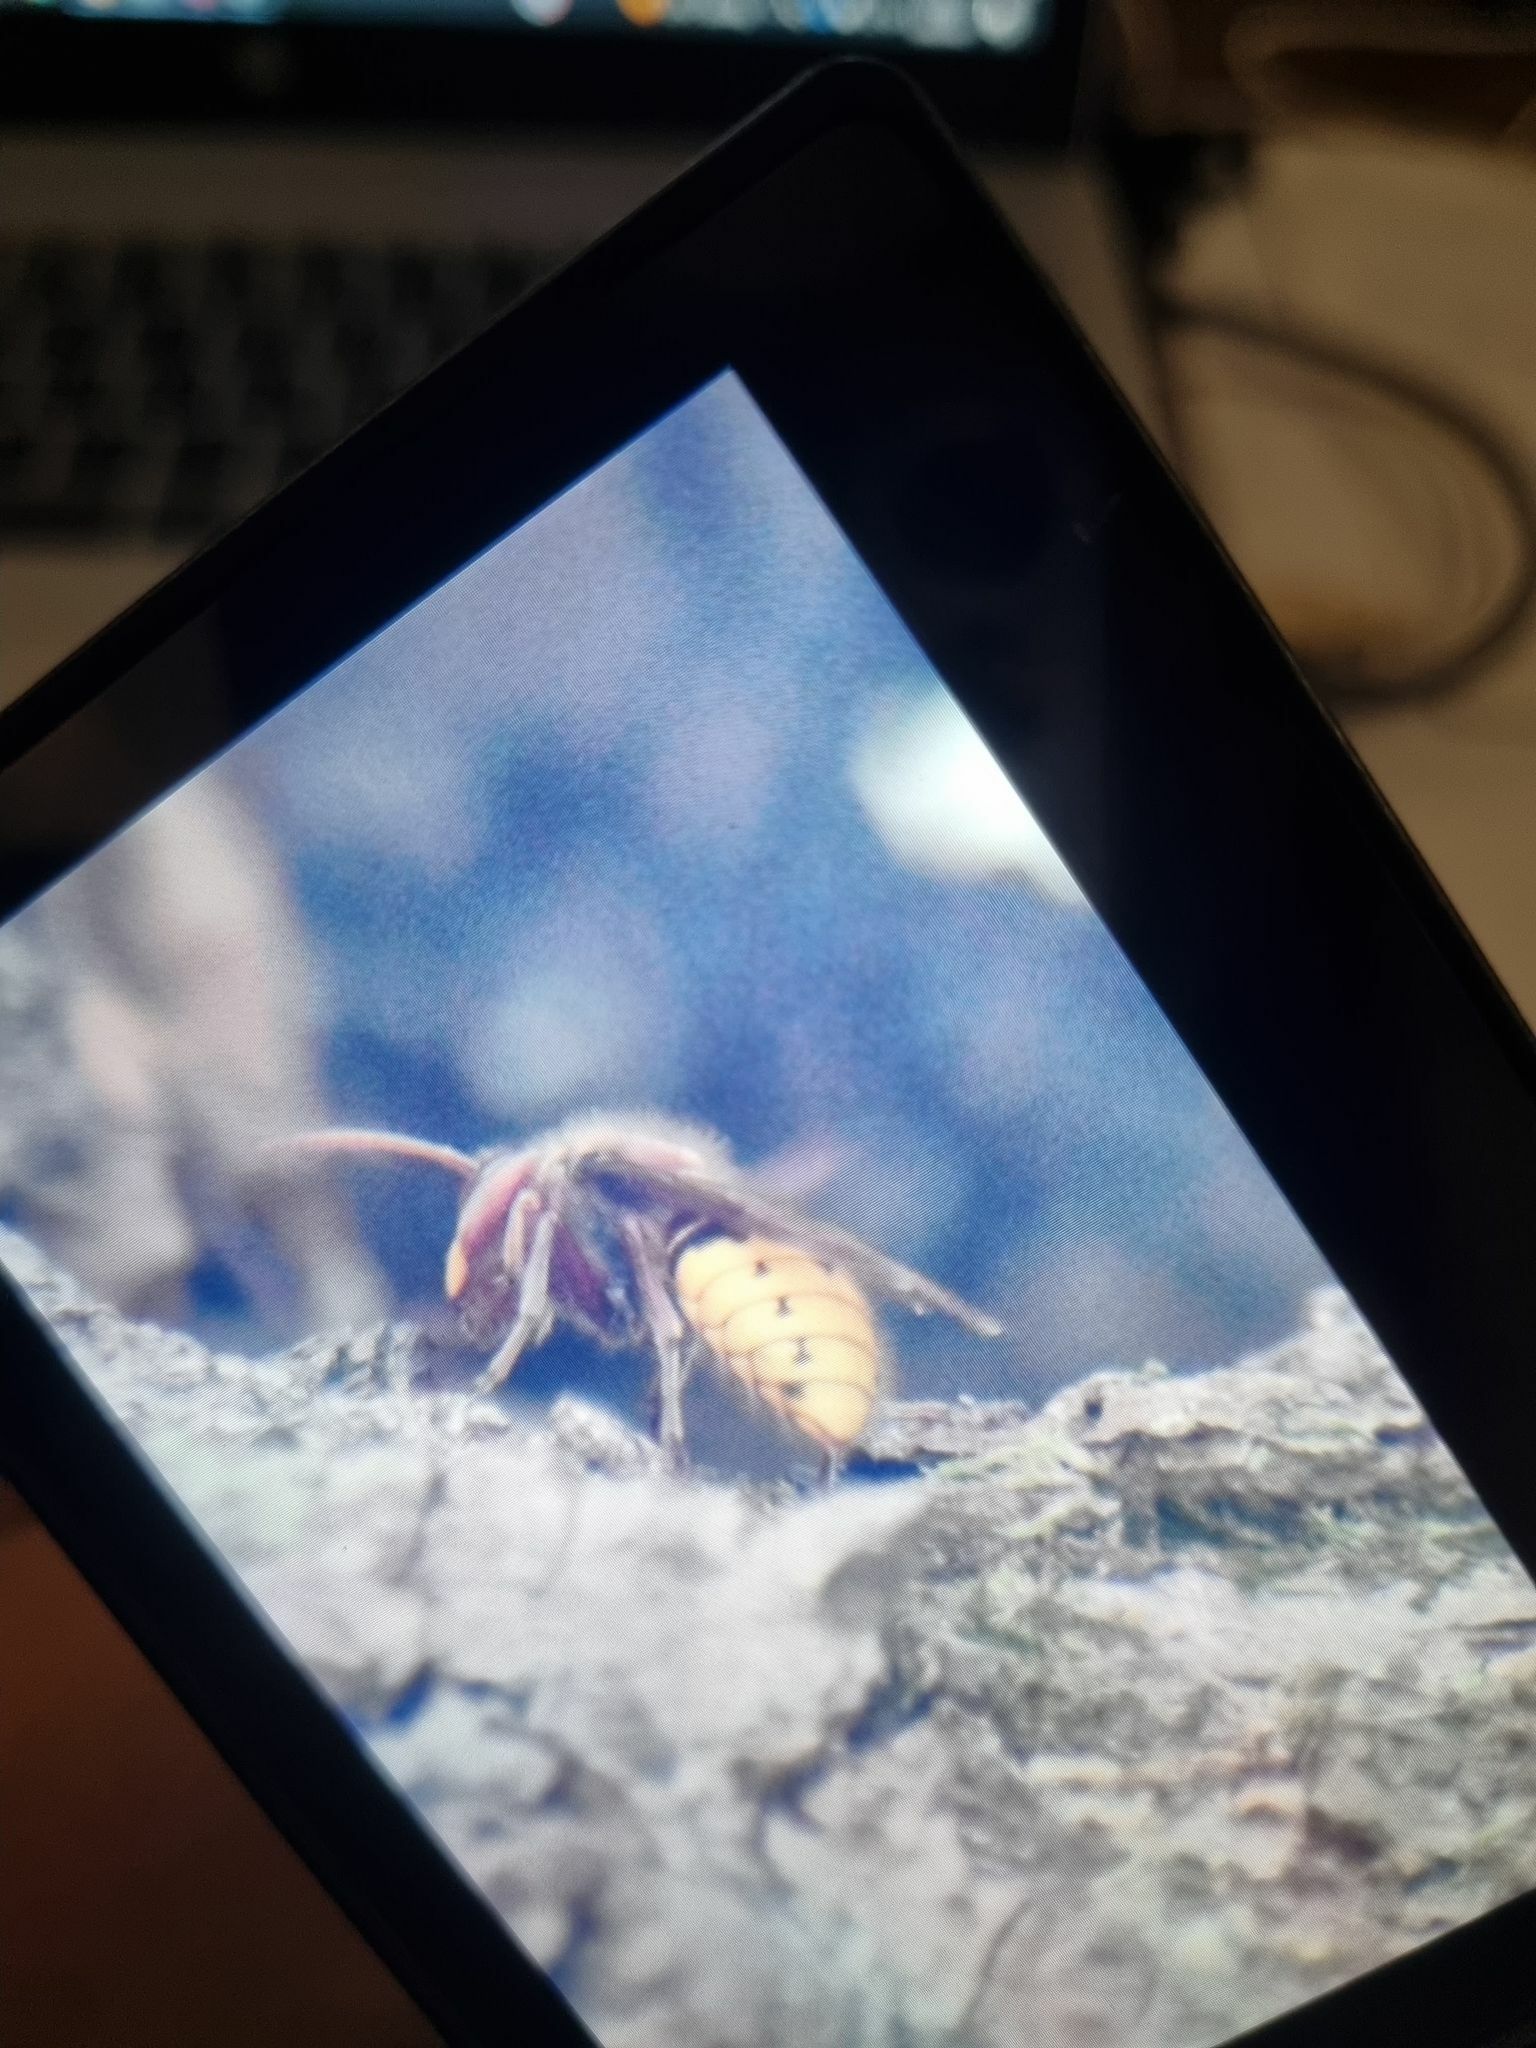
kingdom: Animalia
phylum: Arthropoda
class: Insecta
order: Hymenoptera
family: Vespidae
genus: Vespa
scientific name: Vespa crabro
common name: Hornet
